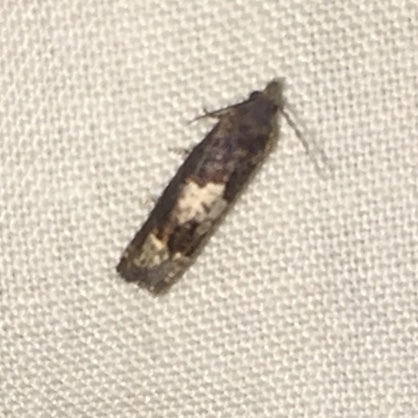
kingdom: Animalia
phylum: Arthropoda
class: Insecta
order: Lepidoptera
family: Tortricidae
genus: Eucosma
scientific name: Eucosma parmatana
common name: Aster eucosma moth
